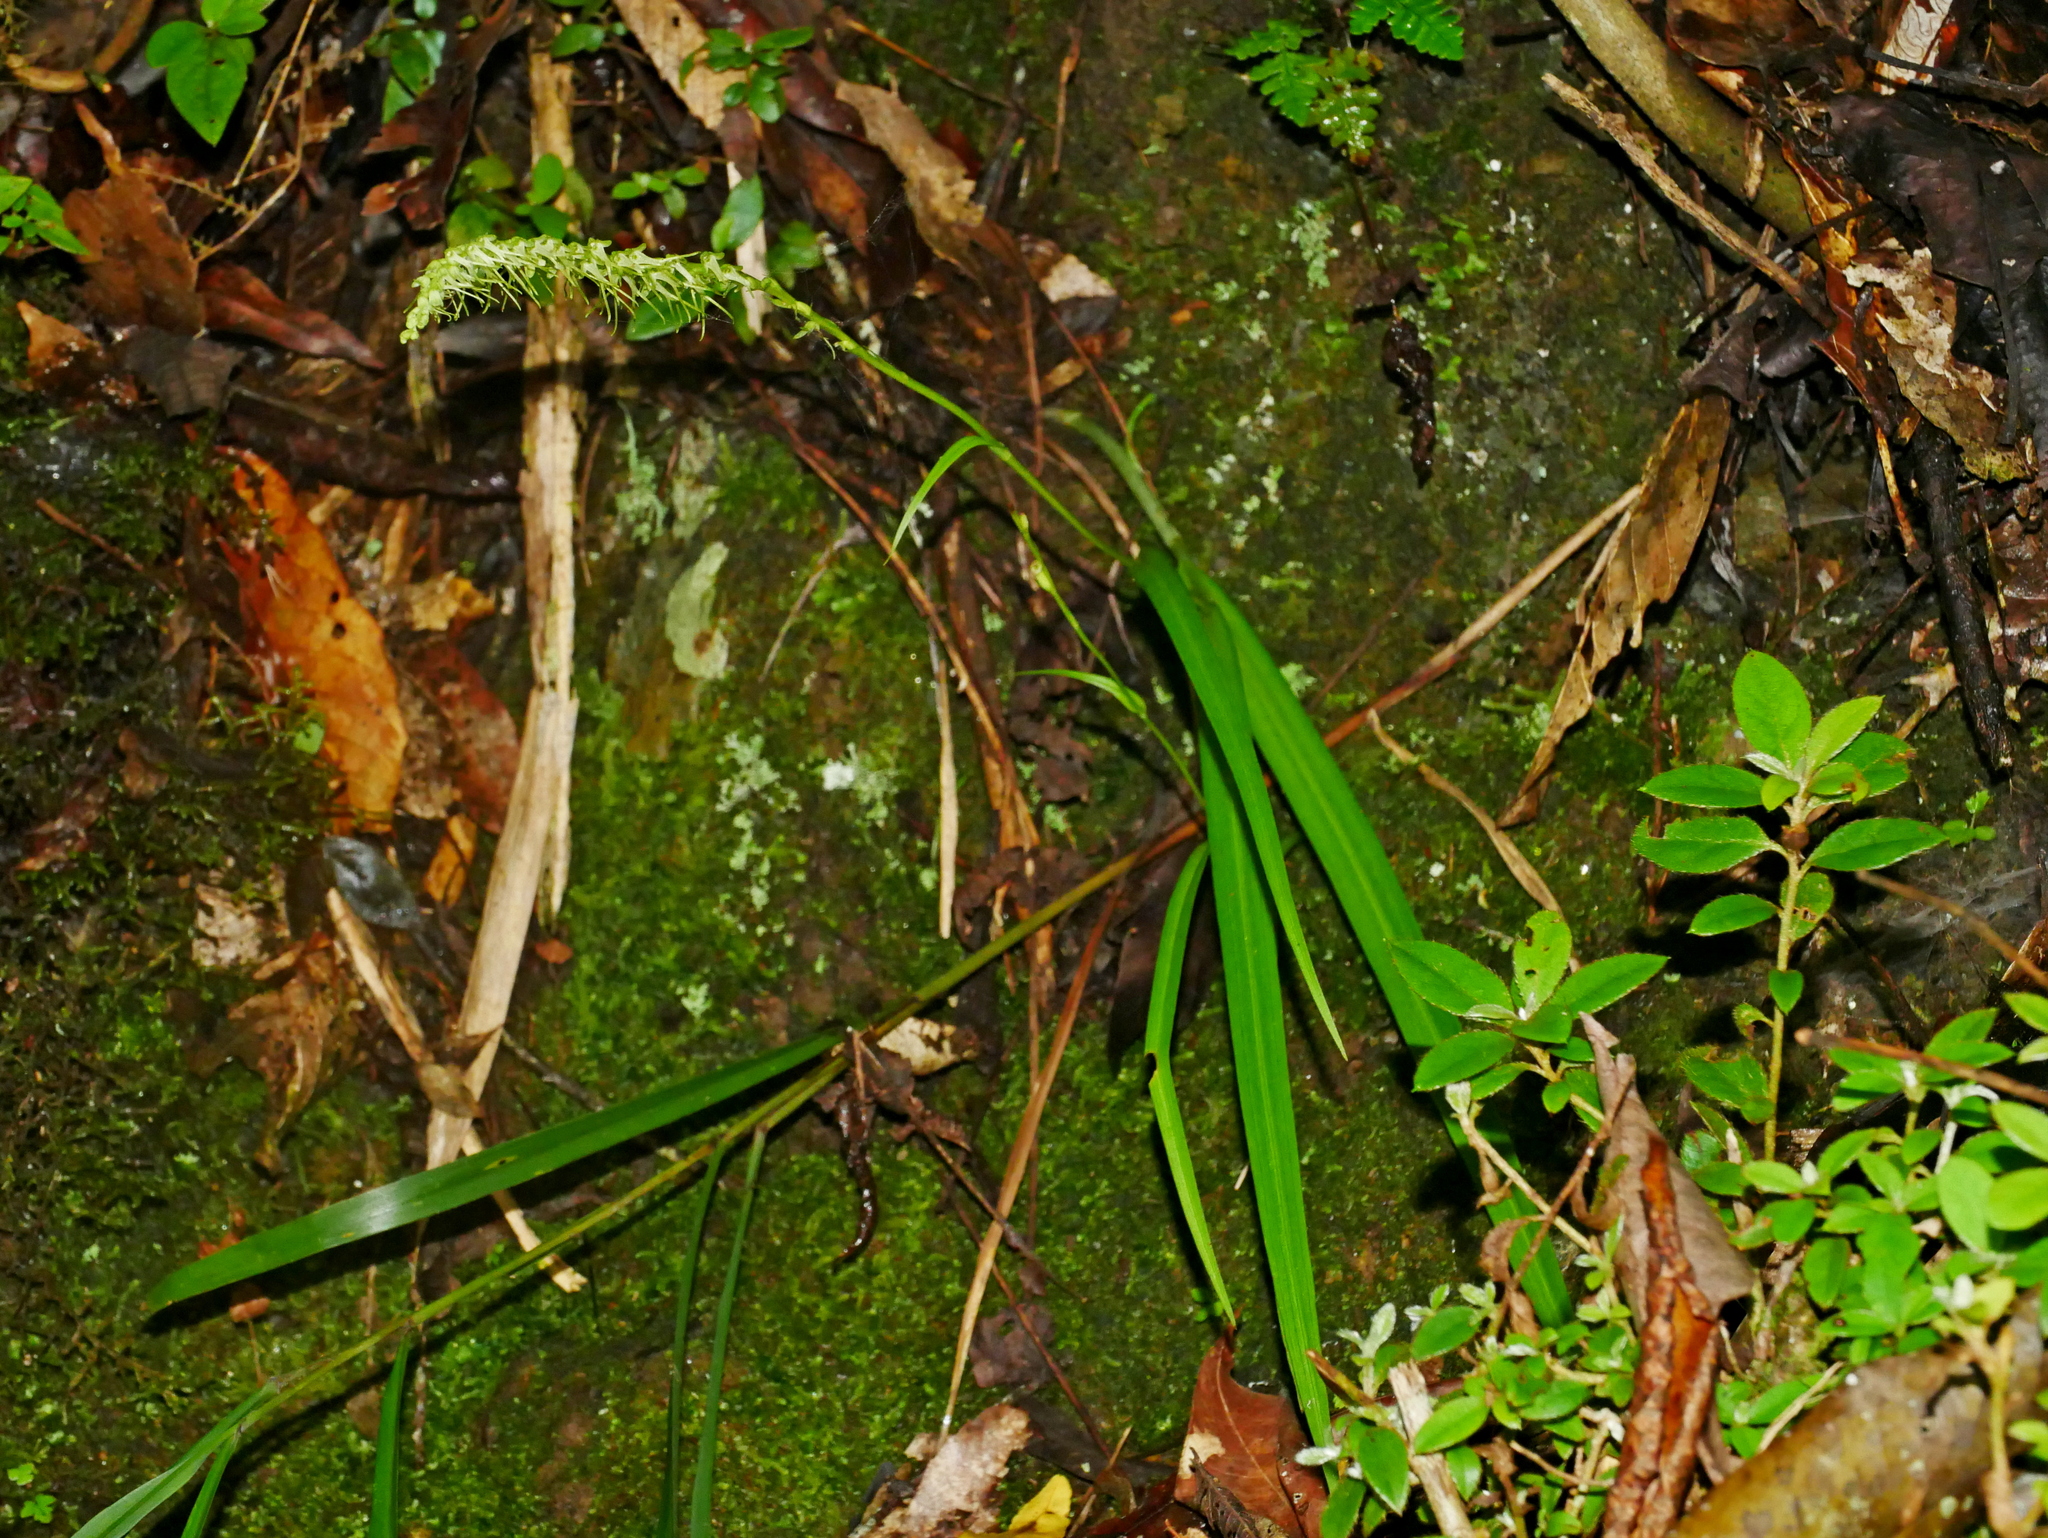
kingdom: Plantae
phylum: Tracheophyta
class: Liliopsida
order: Asparagales
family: Orchidaceae
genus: Herminium
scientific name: Herminium lanceum
